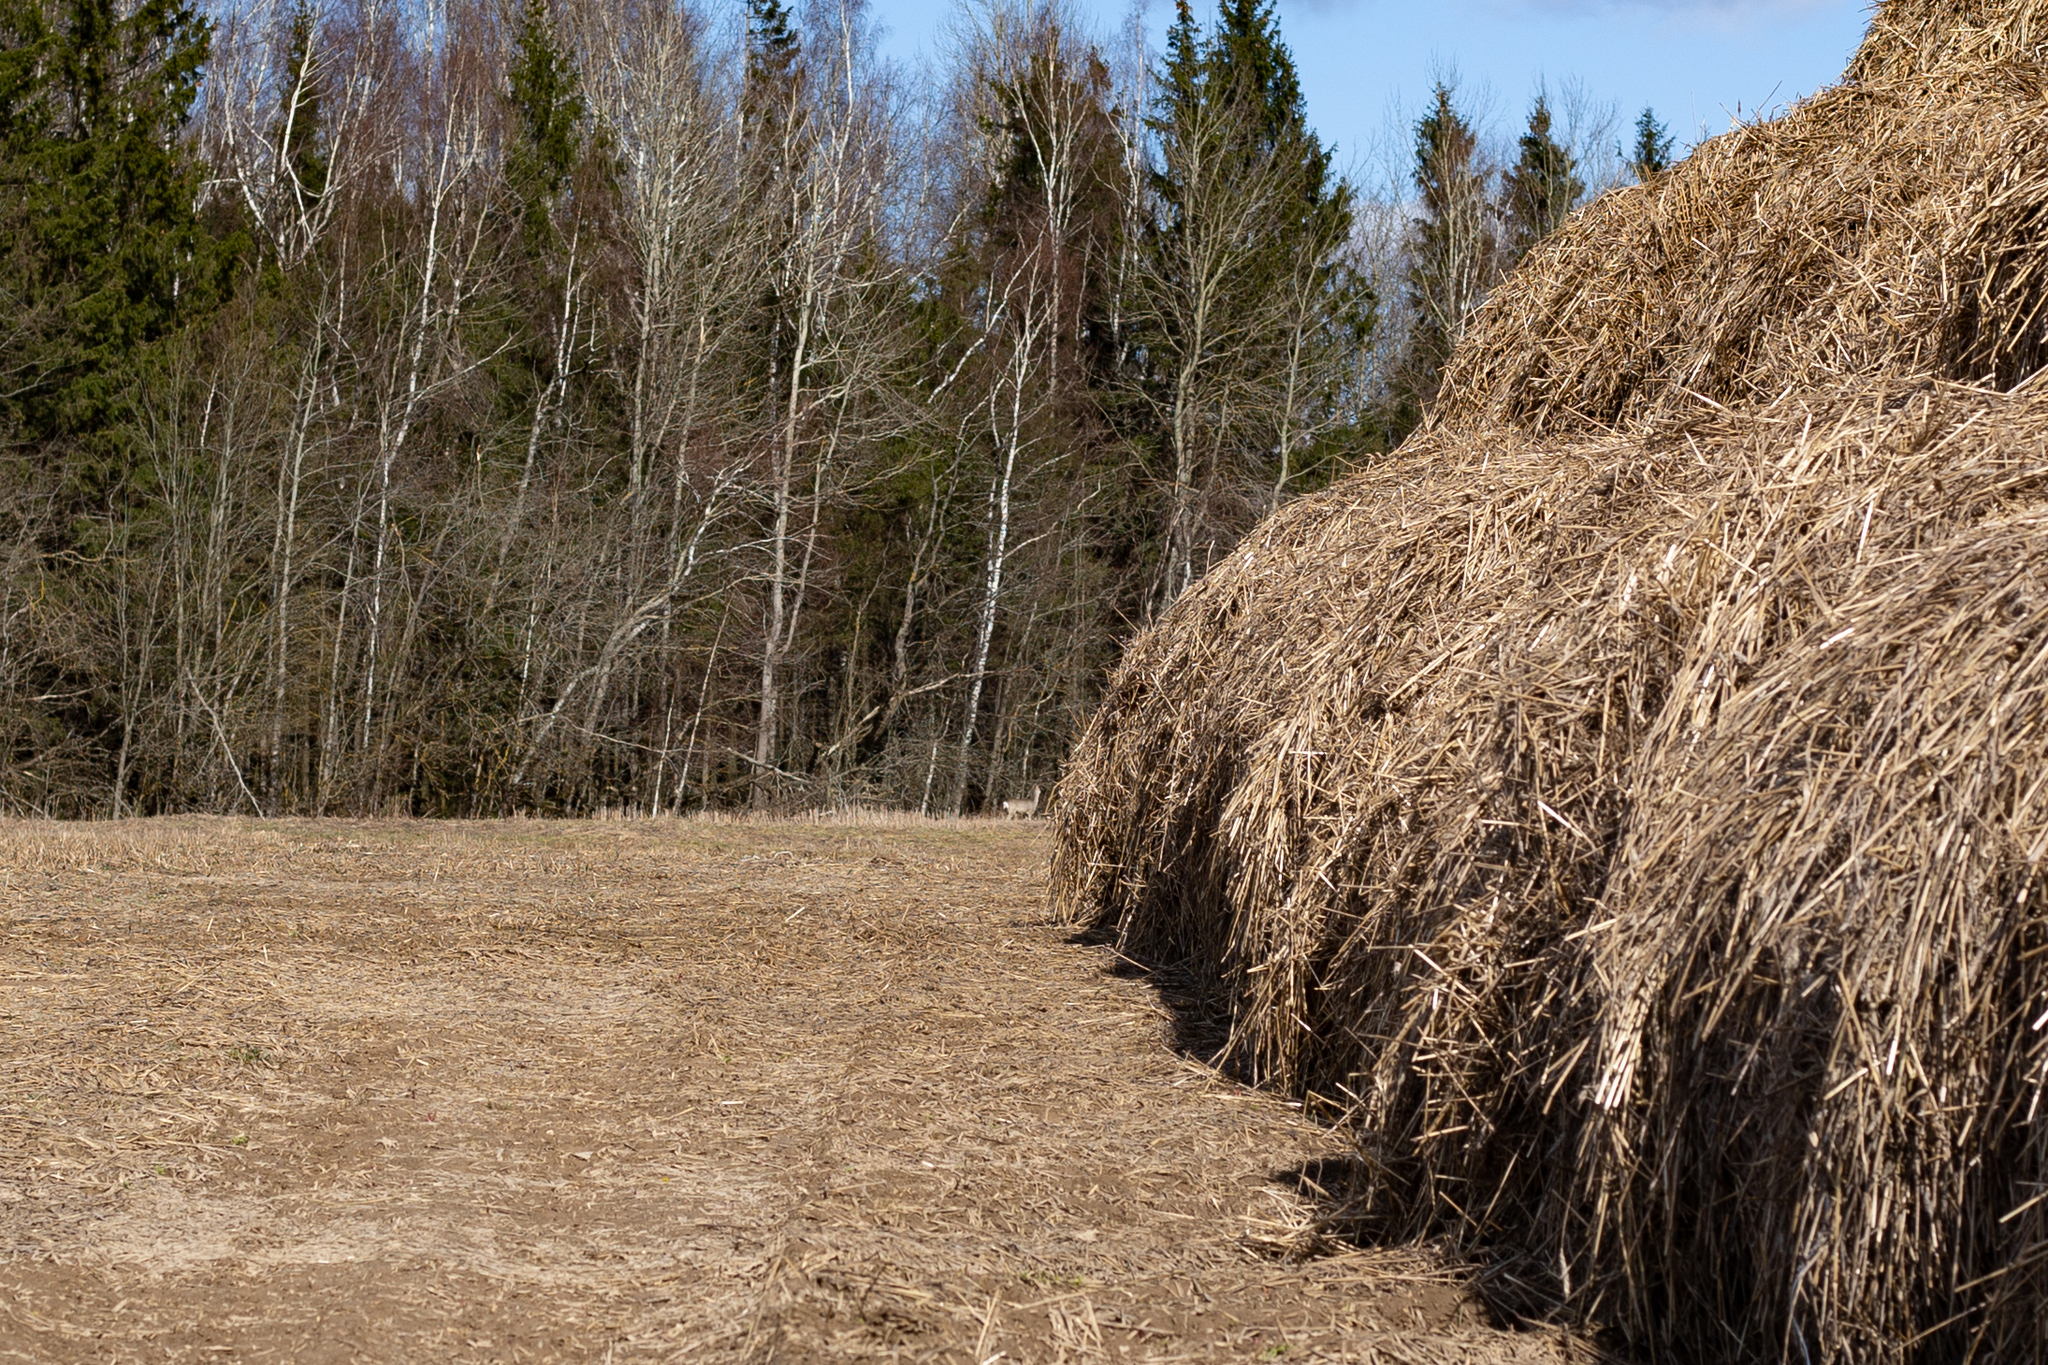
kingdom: Animalia
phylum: Chordata
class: Mammalia
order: Artiodactyla
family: Cervidae
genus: Capreolus
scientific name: Capreolus capreolus
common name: Western roe deer
